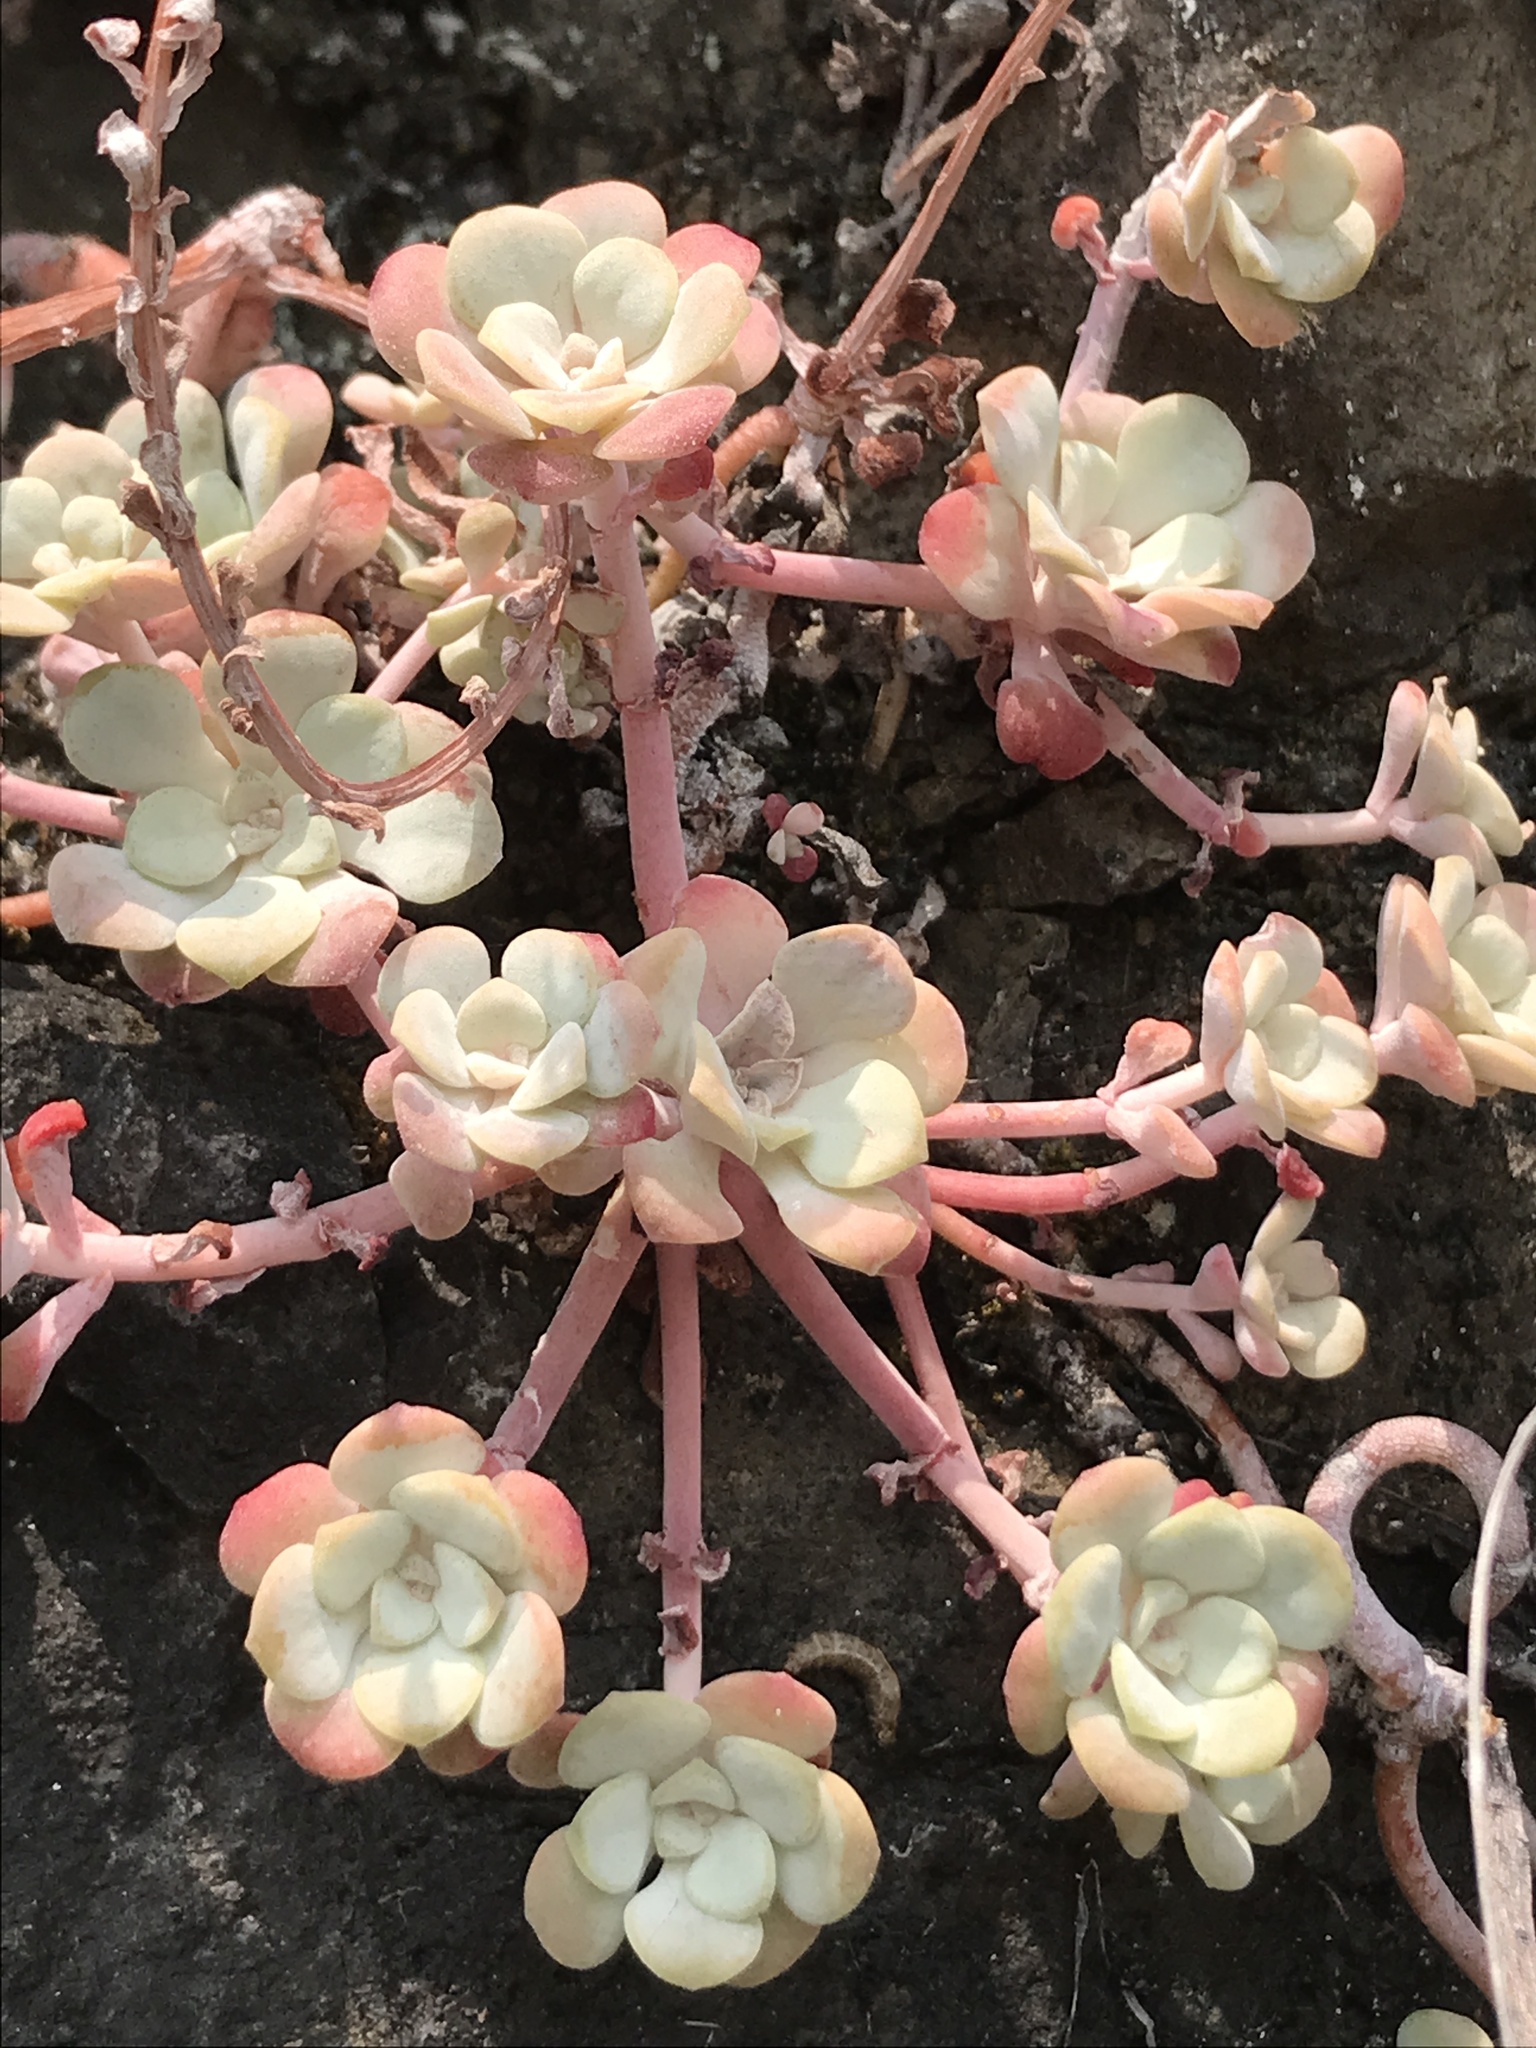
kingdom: Plantae
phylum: Tracheophyta
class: Magnoliopsida
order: Saxifragales
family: Crassulaceae
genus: Sedum
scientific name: Sedum spathulifolium
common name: Colorado stonecrop
